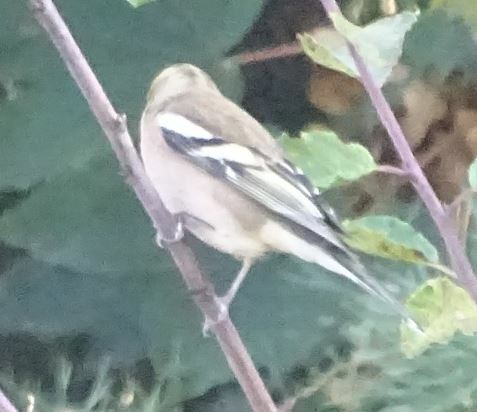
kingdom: Animalia
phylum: Chordata
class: Aves
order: Passeriformes
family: Fringillidae
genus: Fringilla
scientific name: Fringilla coelebs
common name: Common chaffinch
